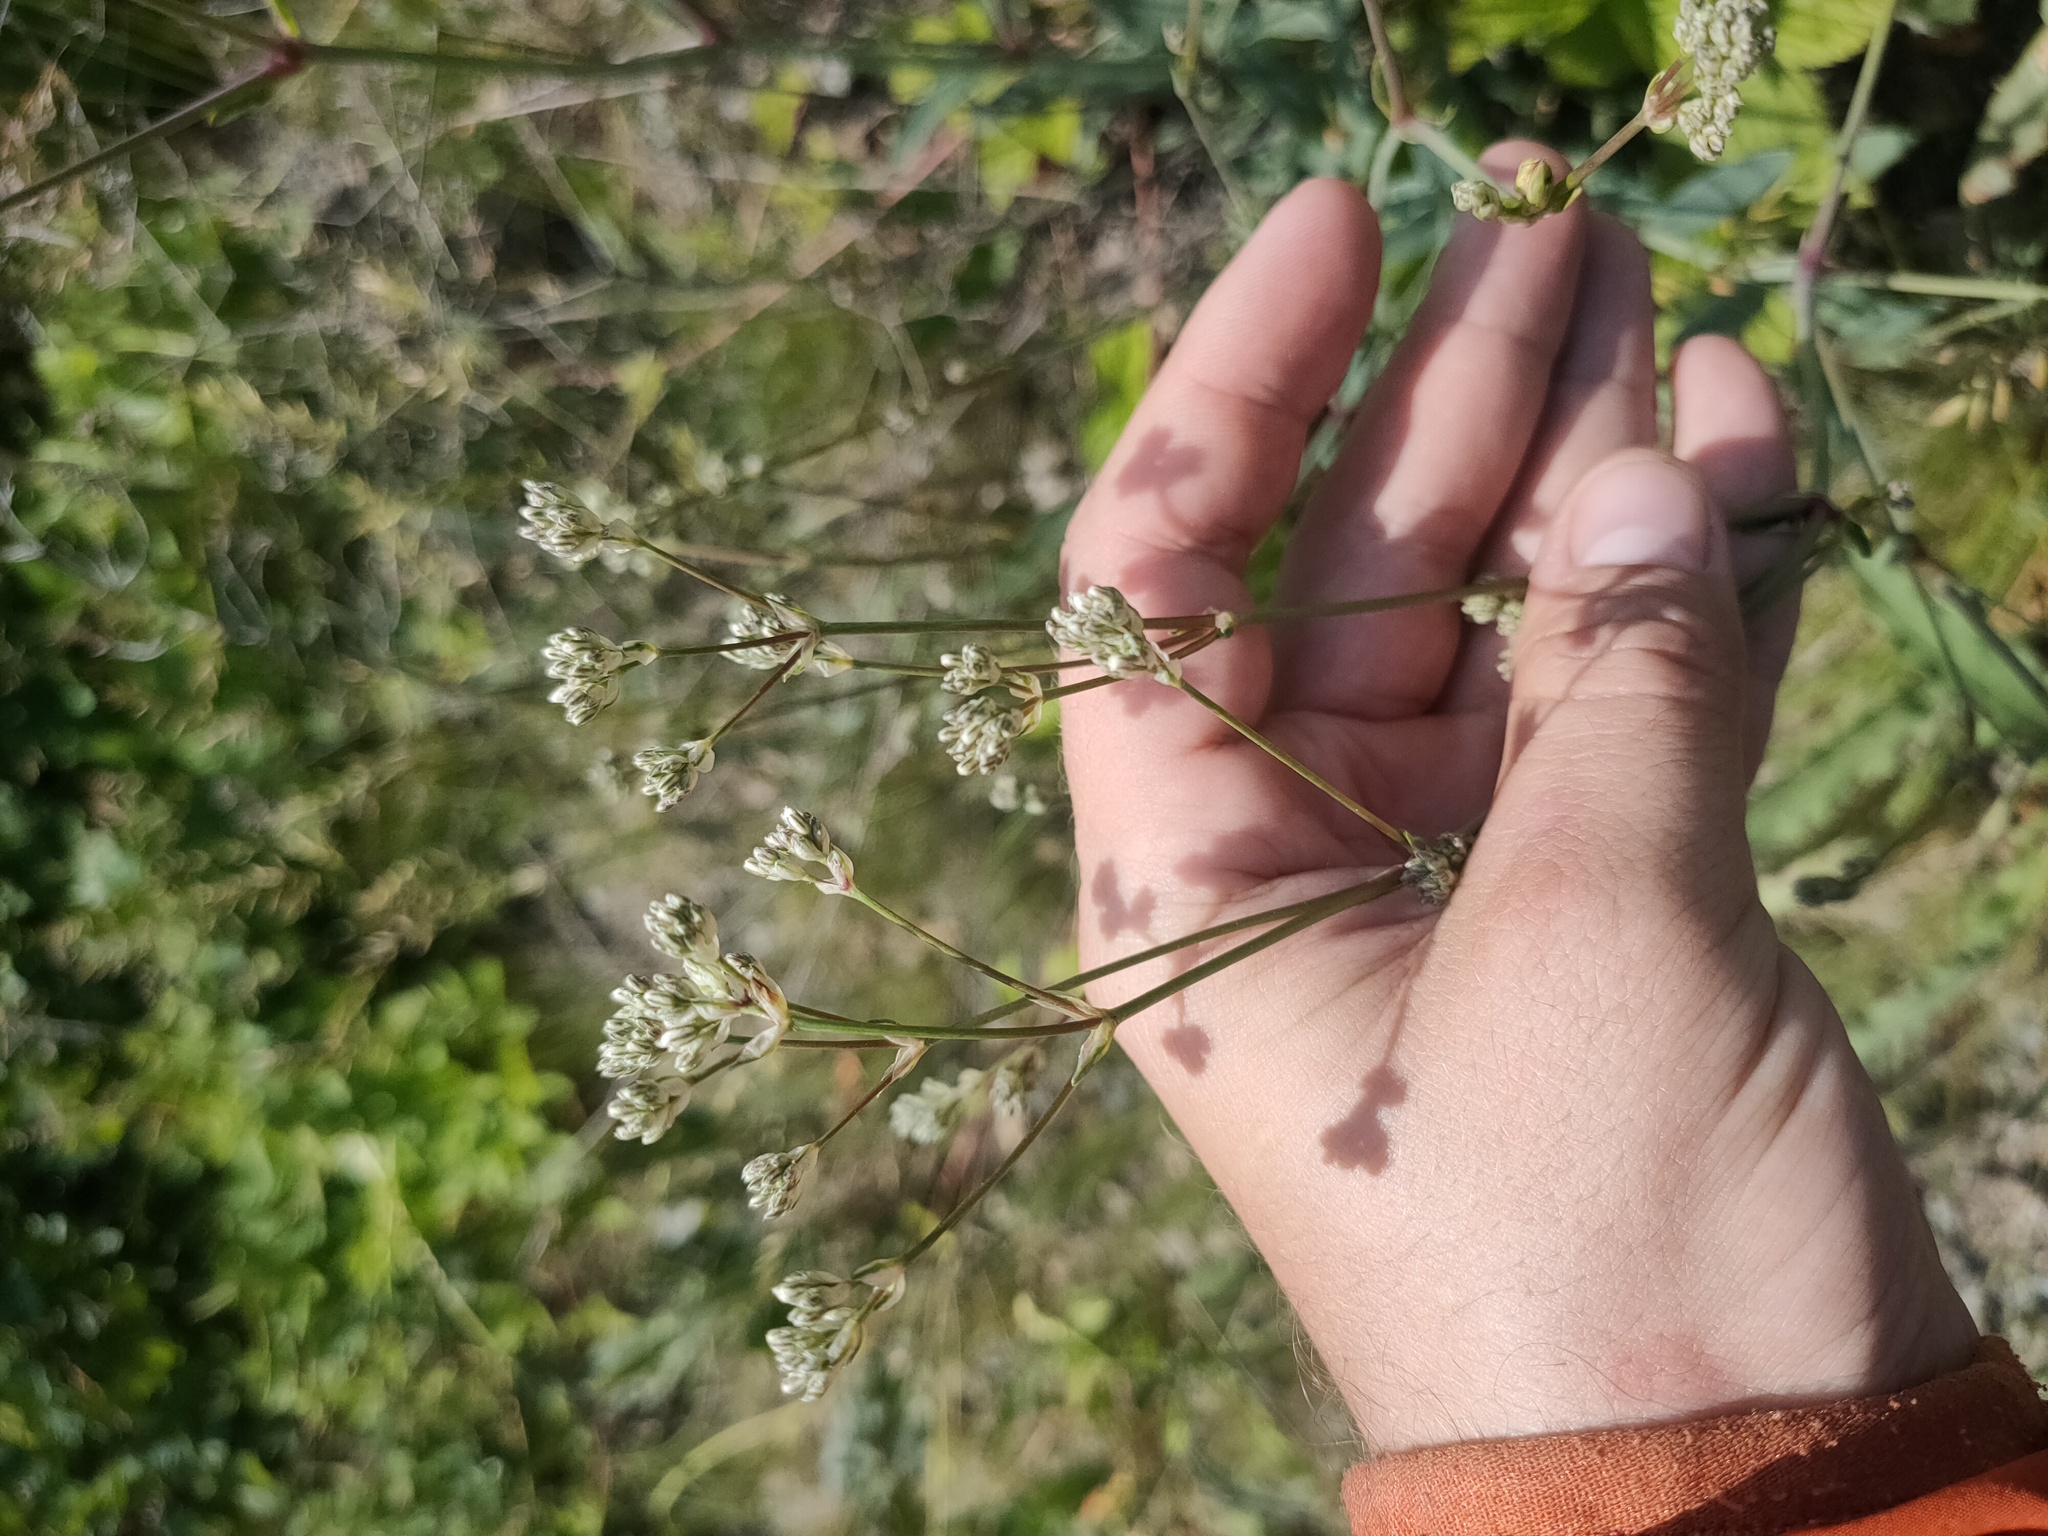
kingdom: Plantae
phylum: Tracheophyta
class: Magnoliopsida
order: Caryophyllales
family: Caryophyllaceae
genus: Gypsophila
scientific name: Gypsophila altissima
